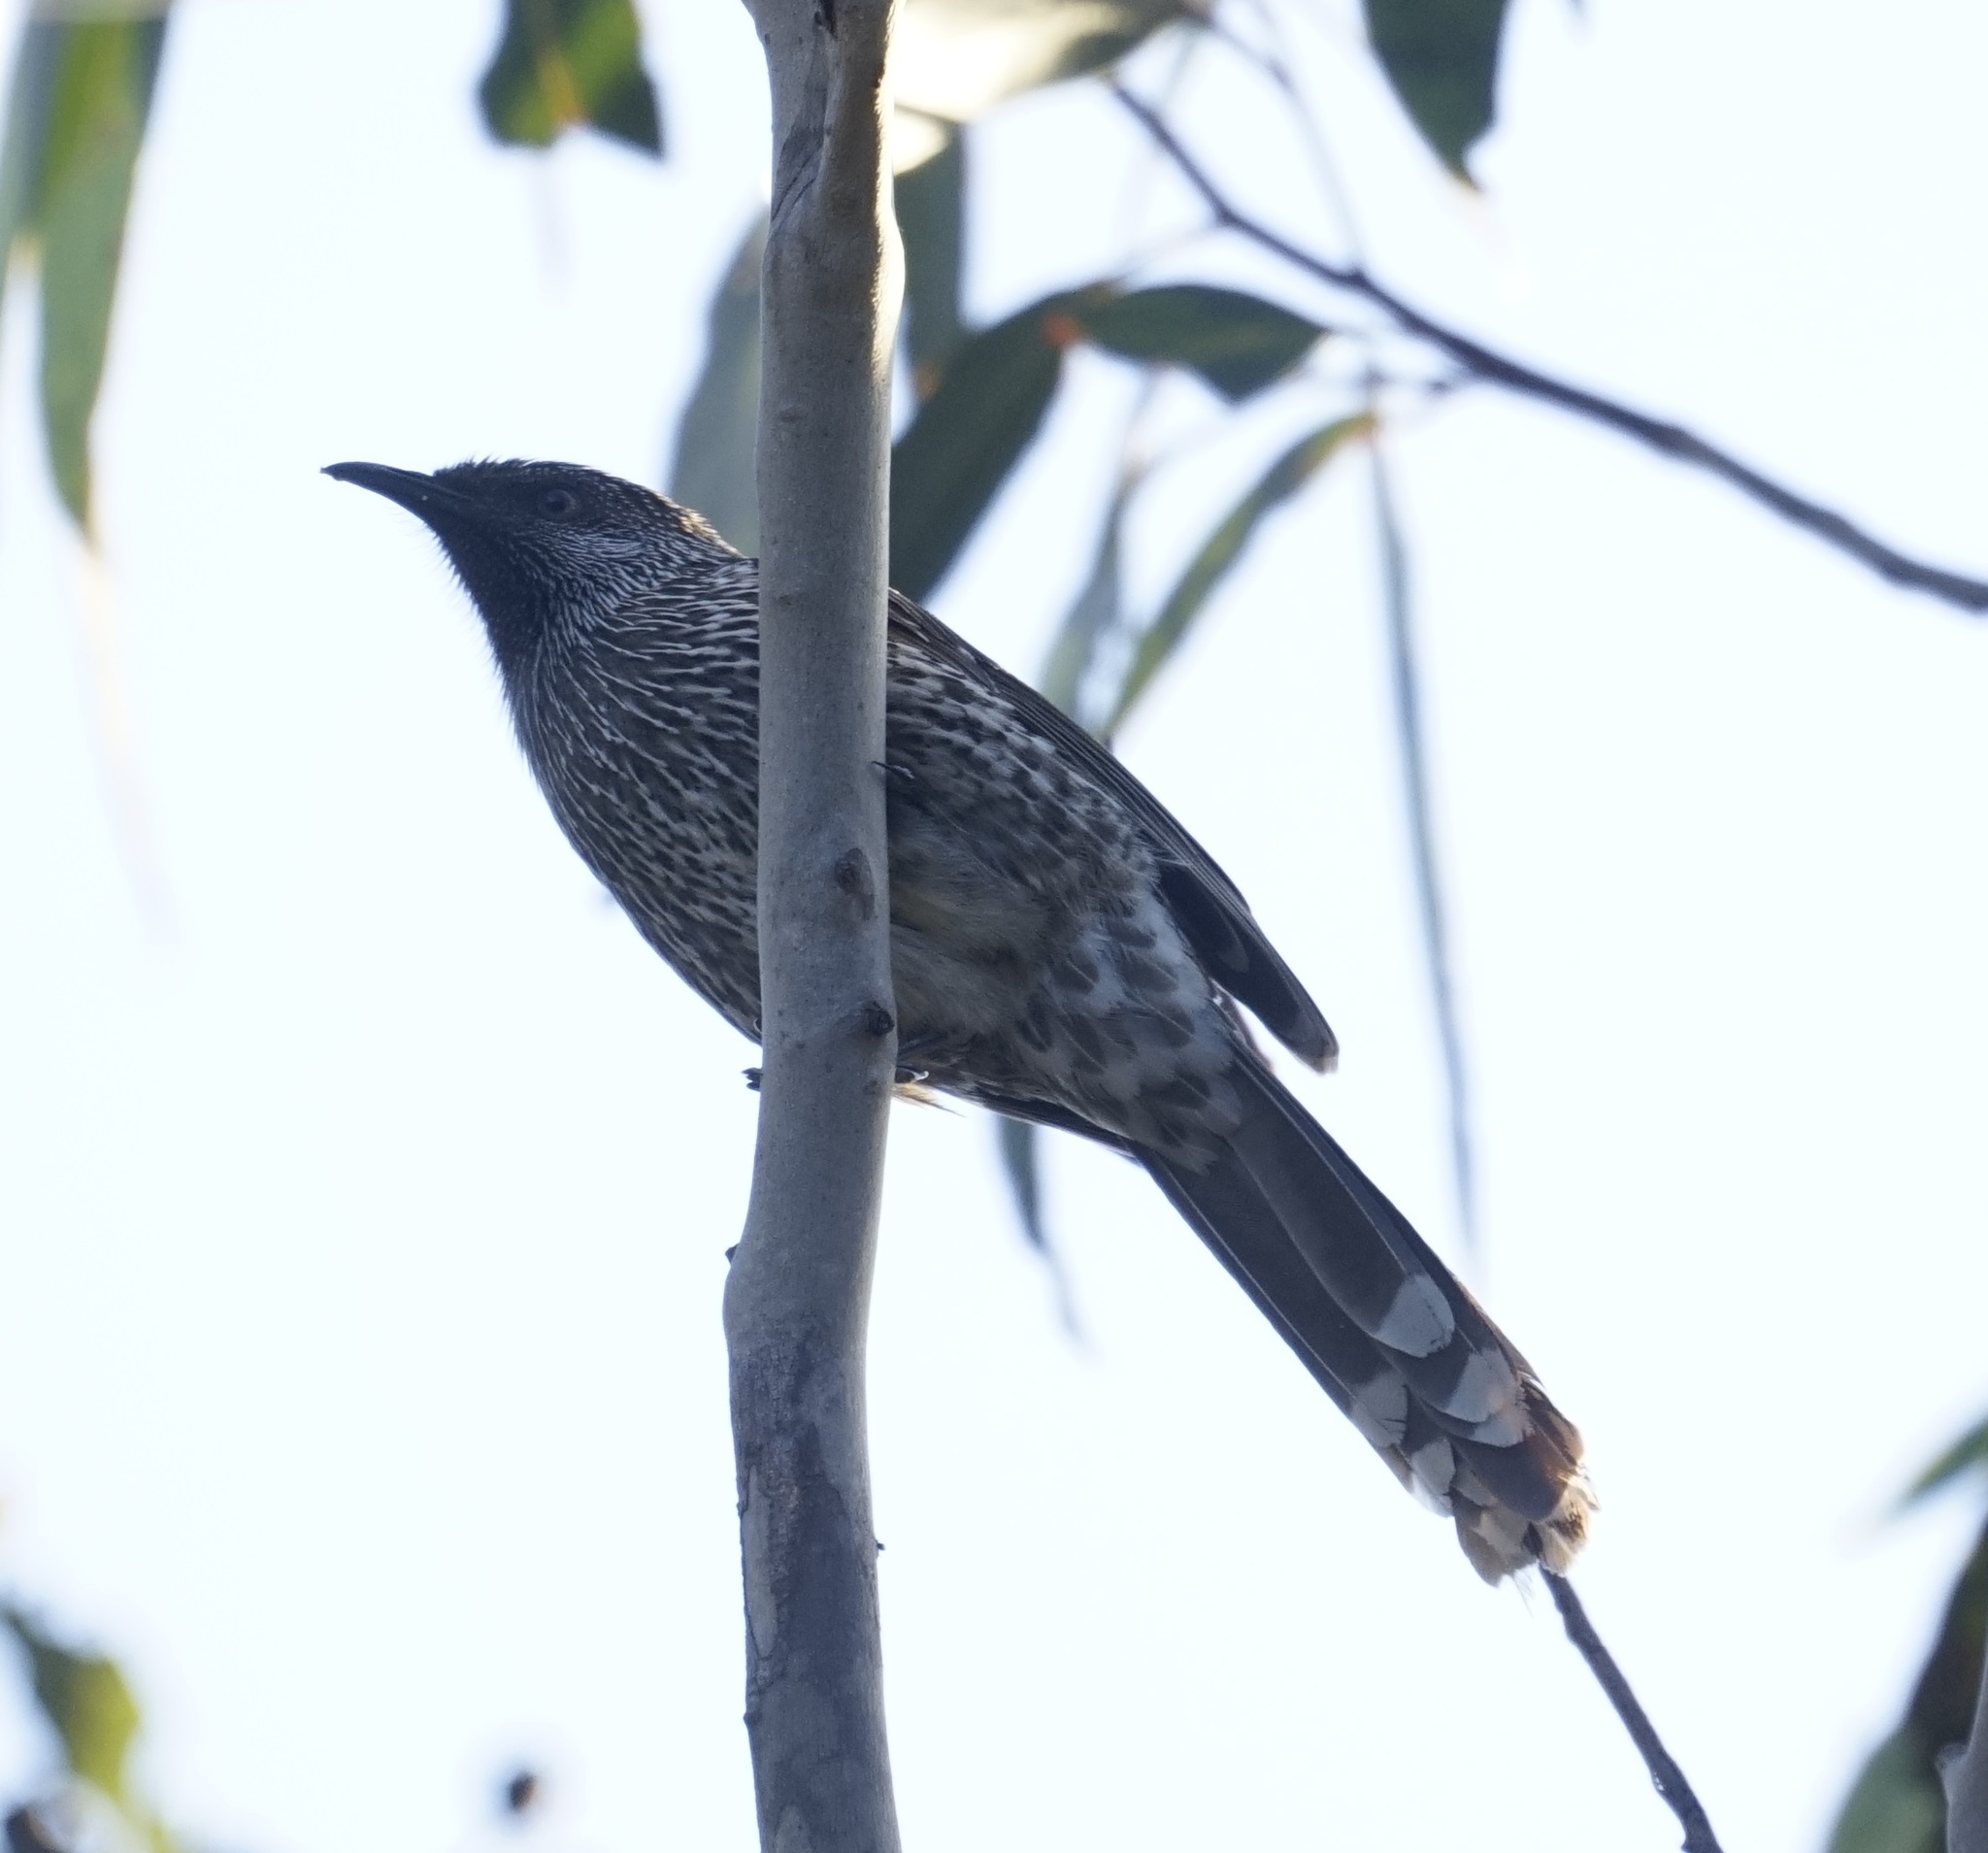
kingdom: Animalia
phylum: Chordata
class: Aves
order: Passeriformes
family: Meliphagidae
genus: Anthochaera
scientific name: Anthochaera chrysoptera
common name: Little wattlebird
